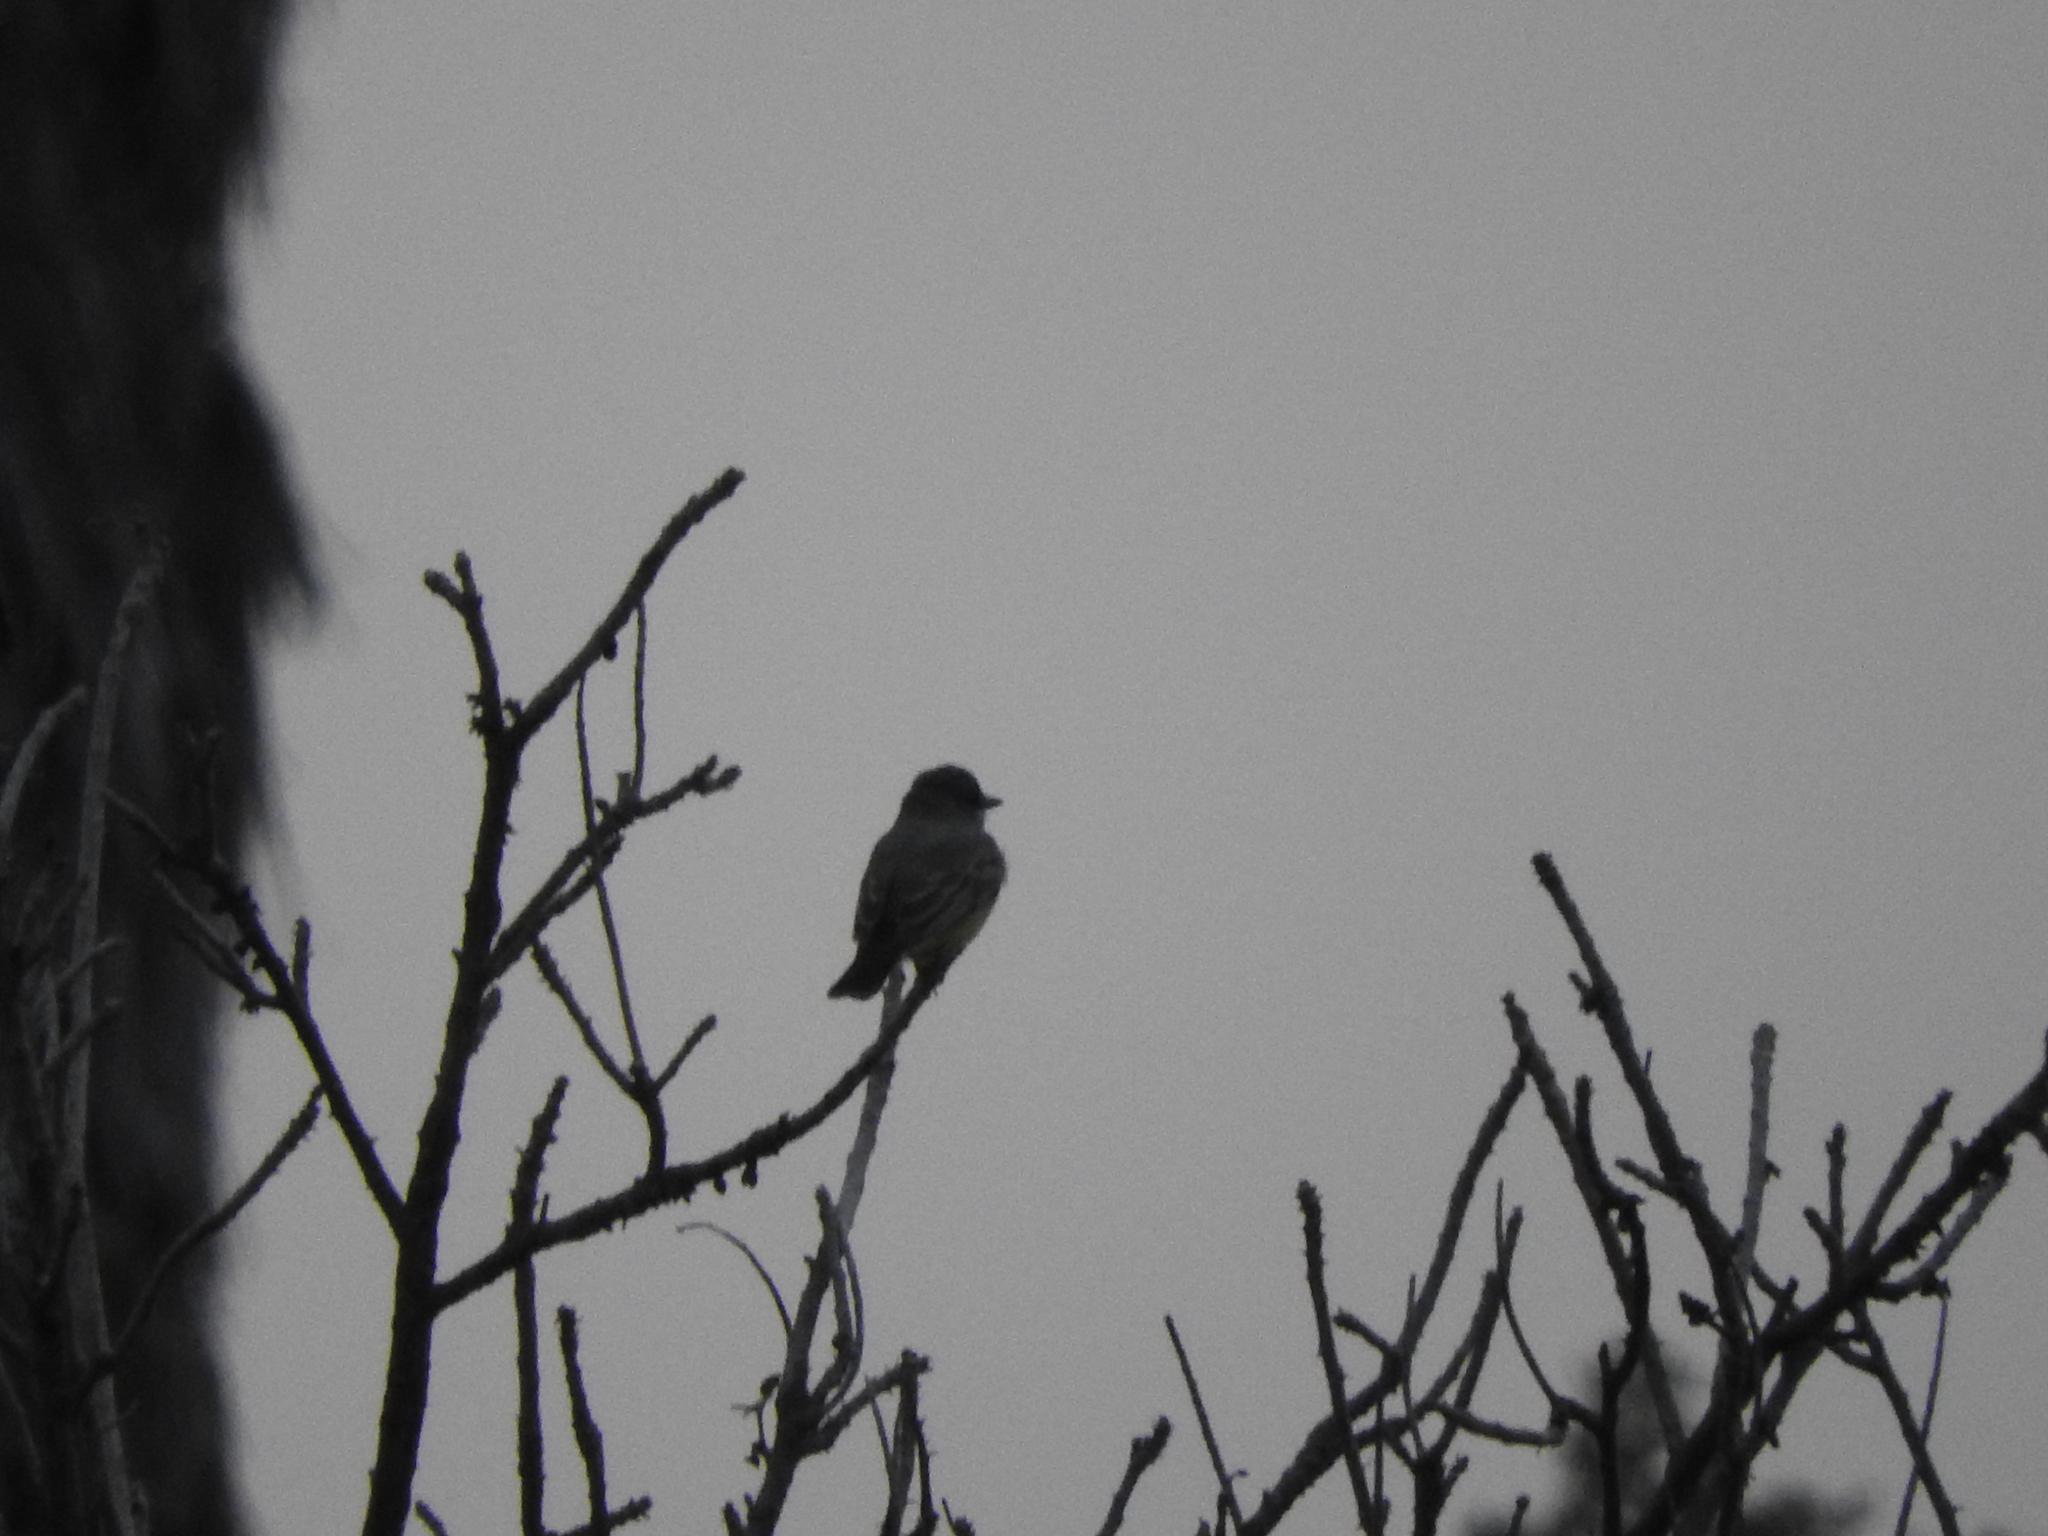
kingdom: Animalia
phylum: Chordata
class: Aves
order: Passeriformes
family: Tyrannidae
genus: Tyrannus
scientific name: Tyrannus vociferans
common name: Cassin's kingbird
